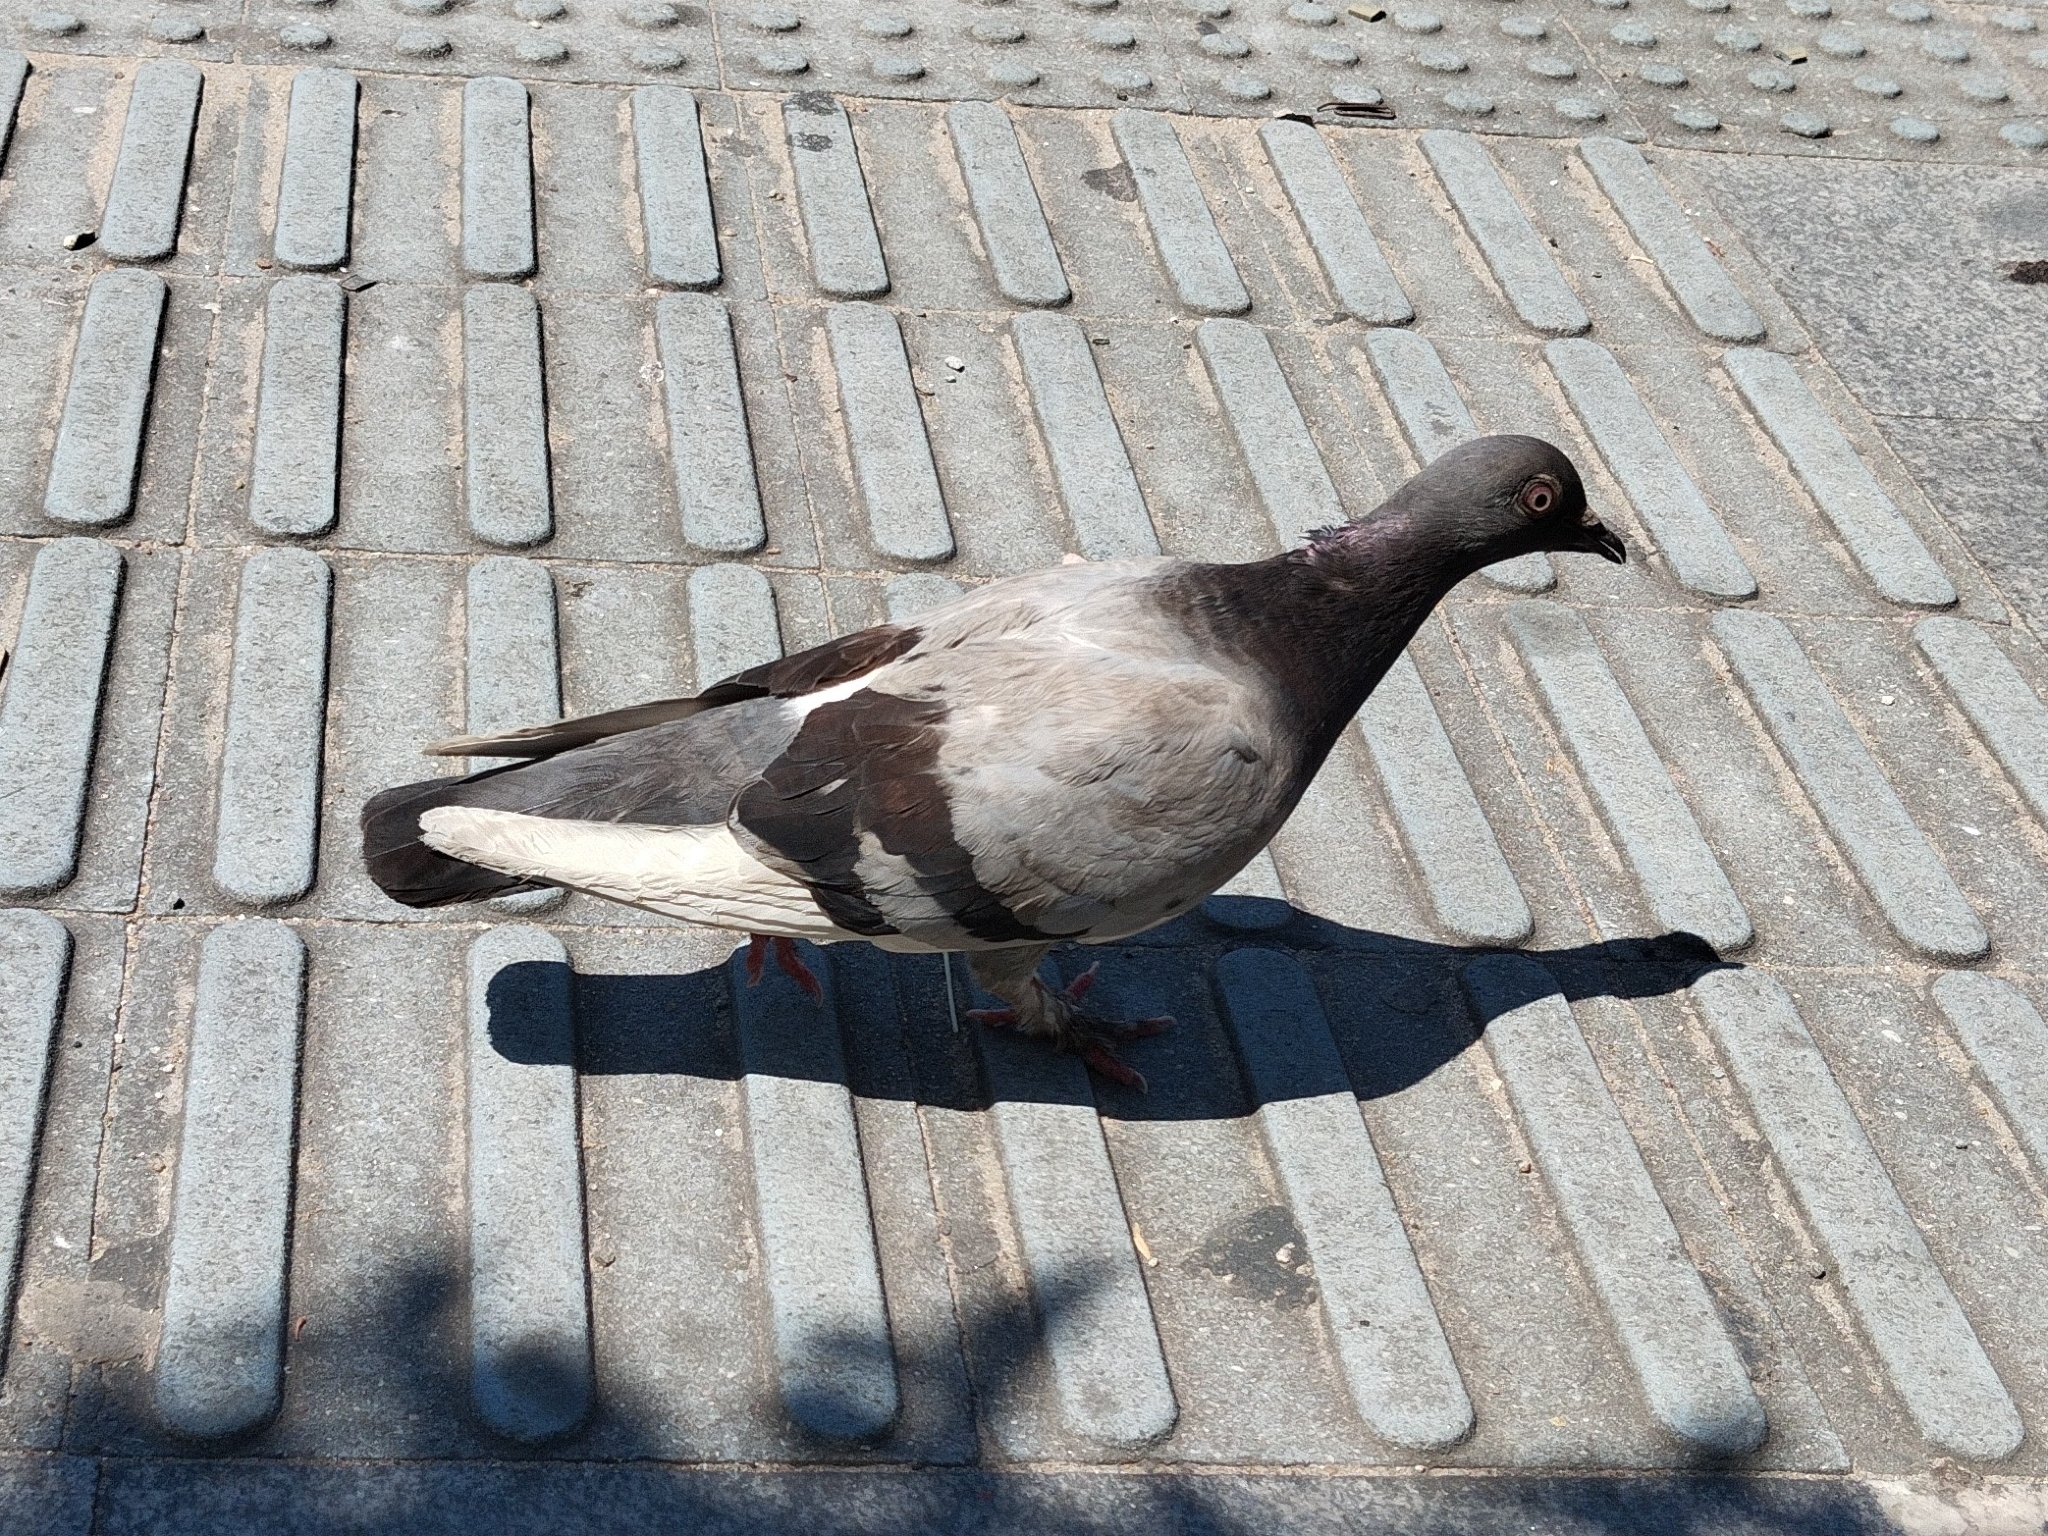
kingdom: Animalia
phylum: Chordata
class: Aves
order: Columbiformes
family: Columbidae
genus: Columba
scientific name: Columba livia
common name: Rock pigeon
